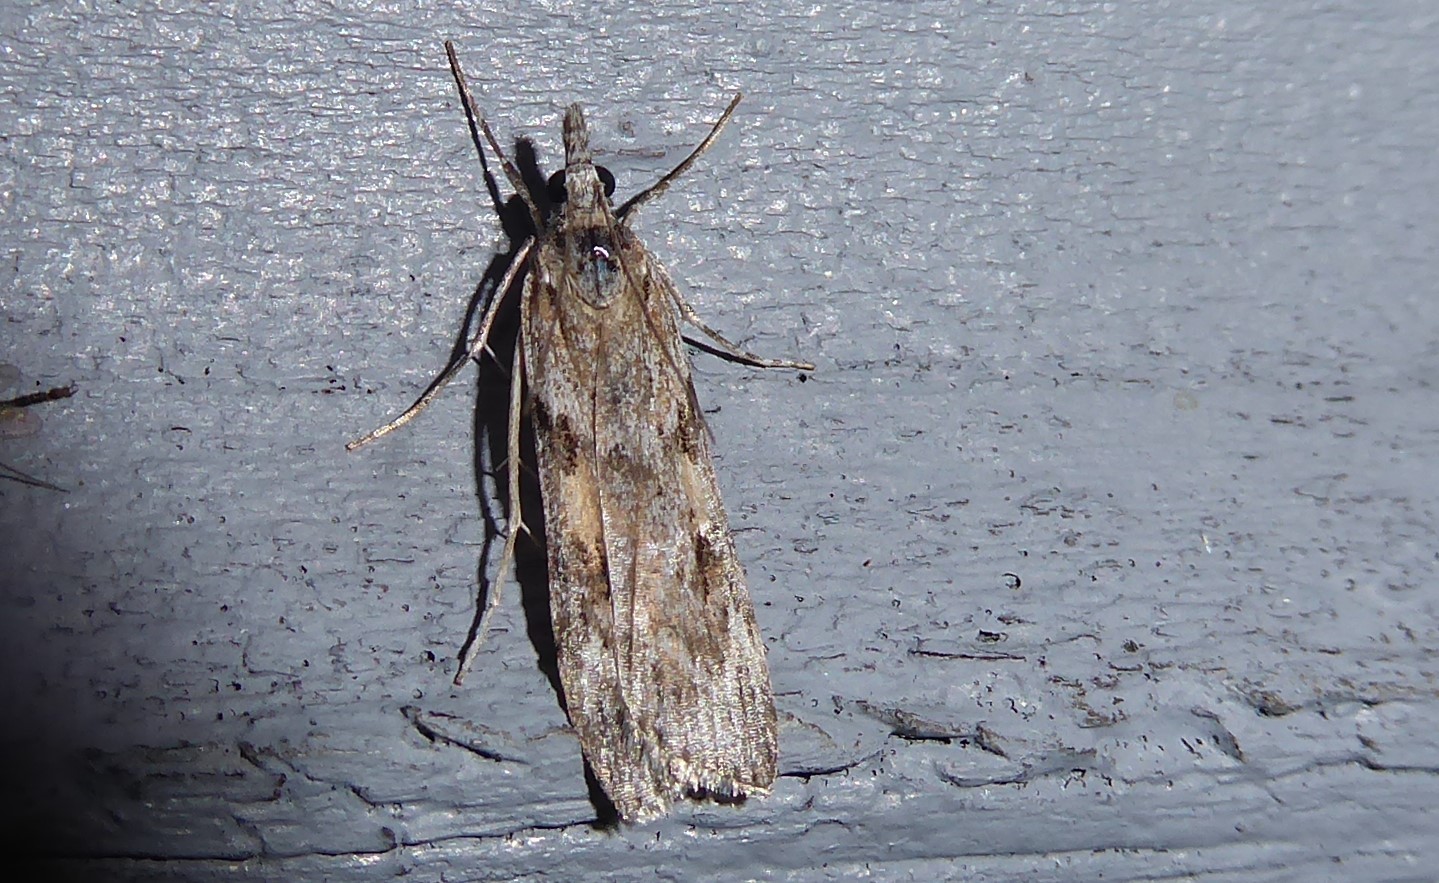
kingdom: Animalia
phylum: Arthropoda
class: Insecta
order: Lepidoptera
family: Crambidae
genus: Scoparia
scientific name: Scoparia halopis
